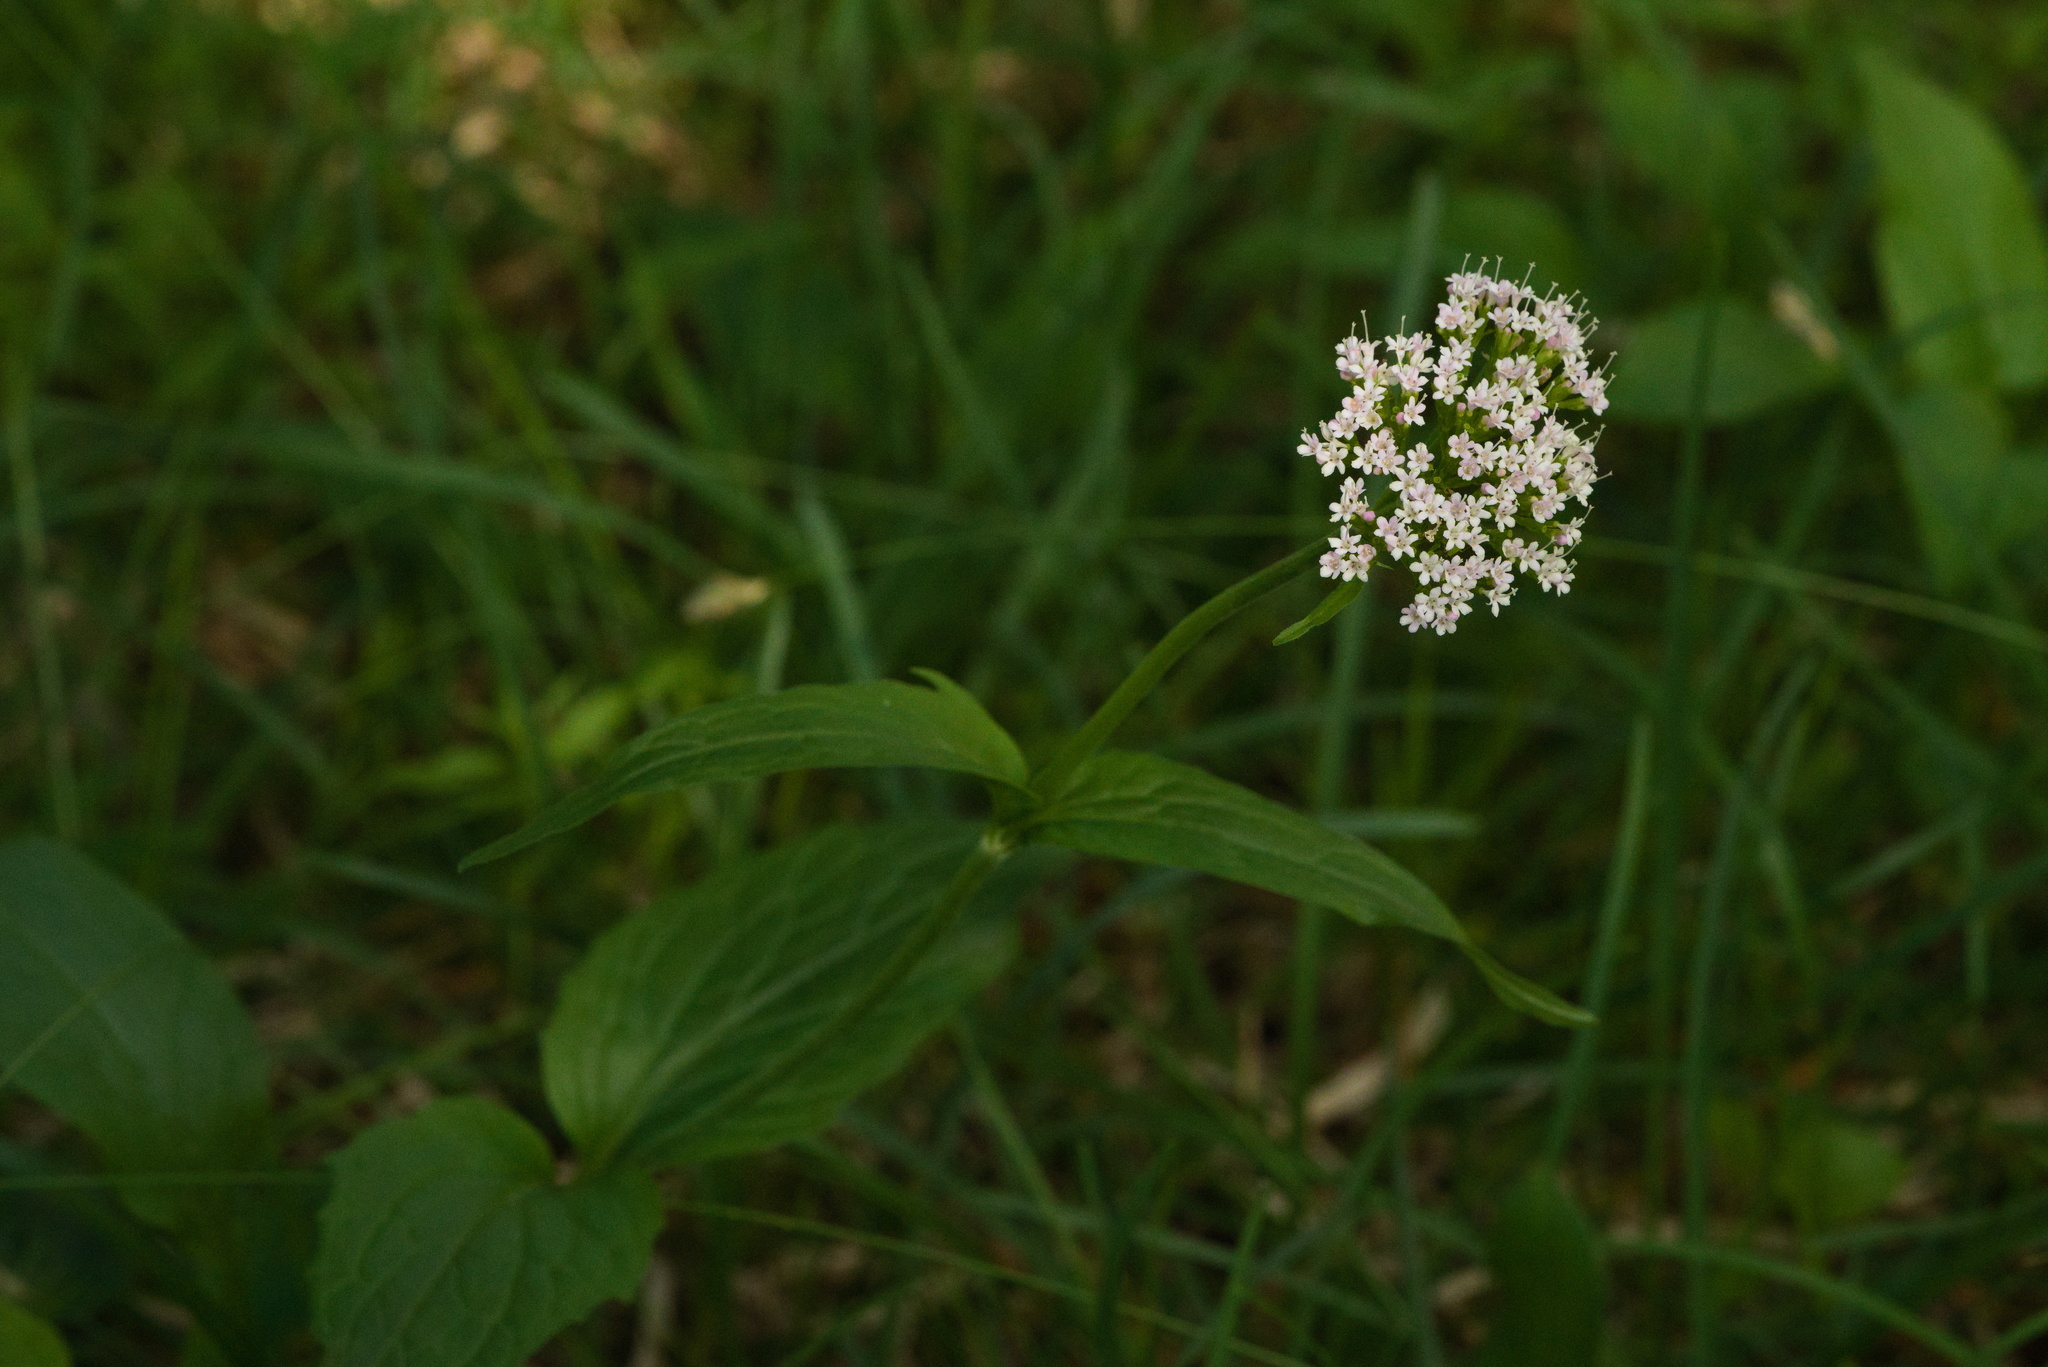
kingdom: Plantae
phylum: Tracheophyta
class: Magnoliopsida
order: Dipsacales
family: Caprifoliaceae
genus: Valeriana
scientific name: Valeriana montana
